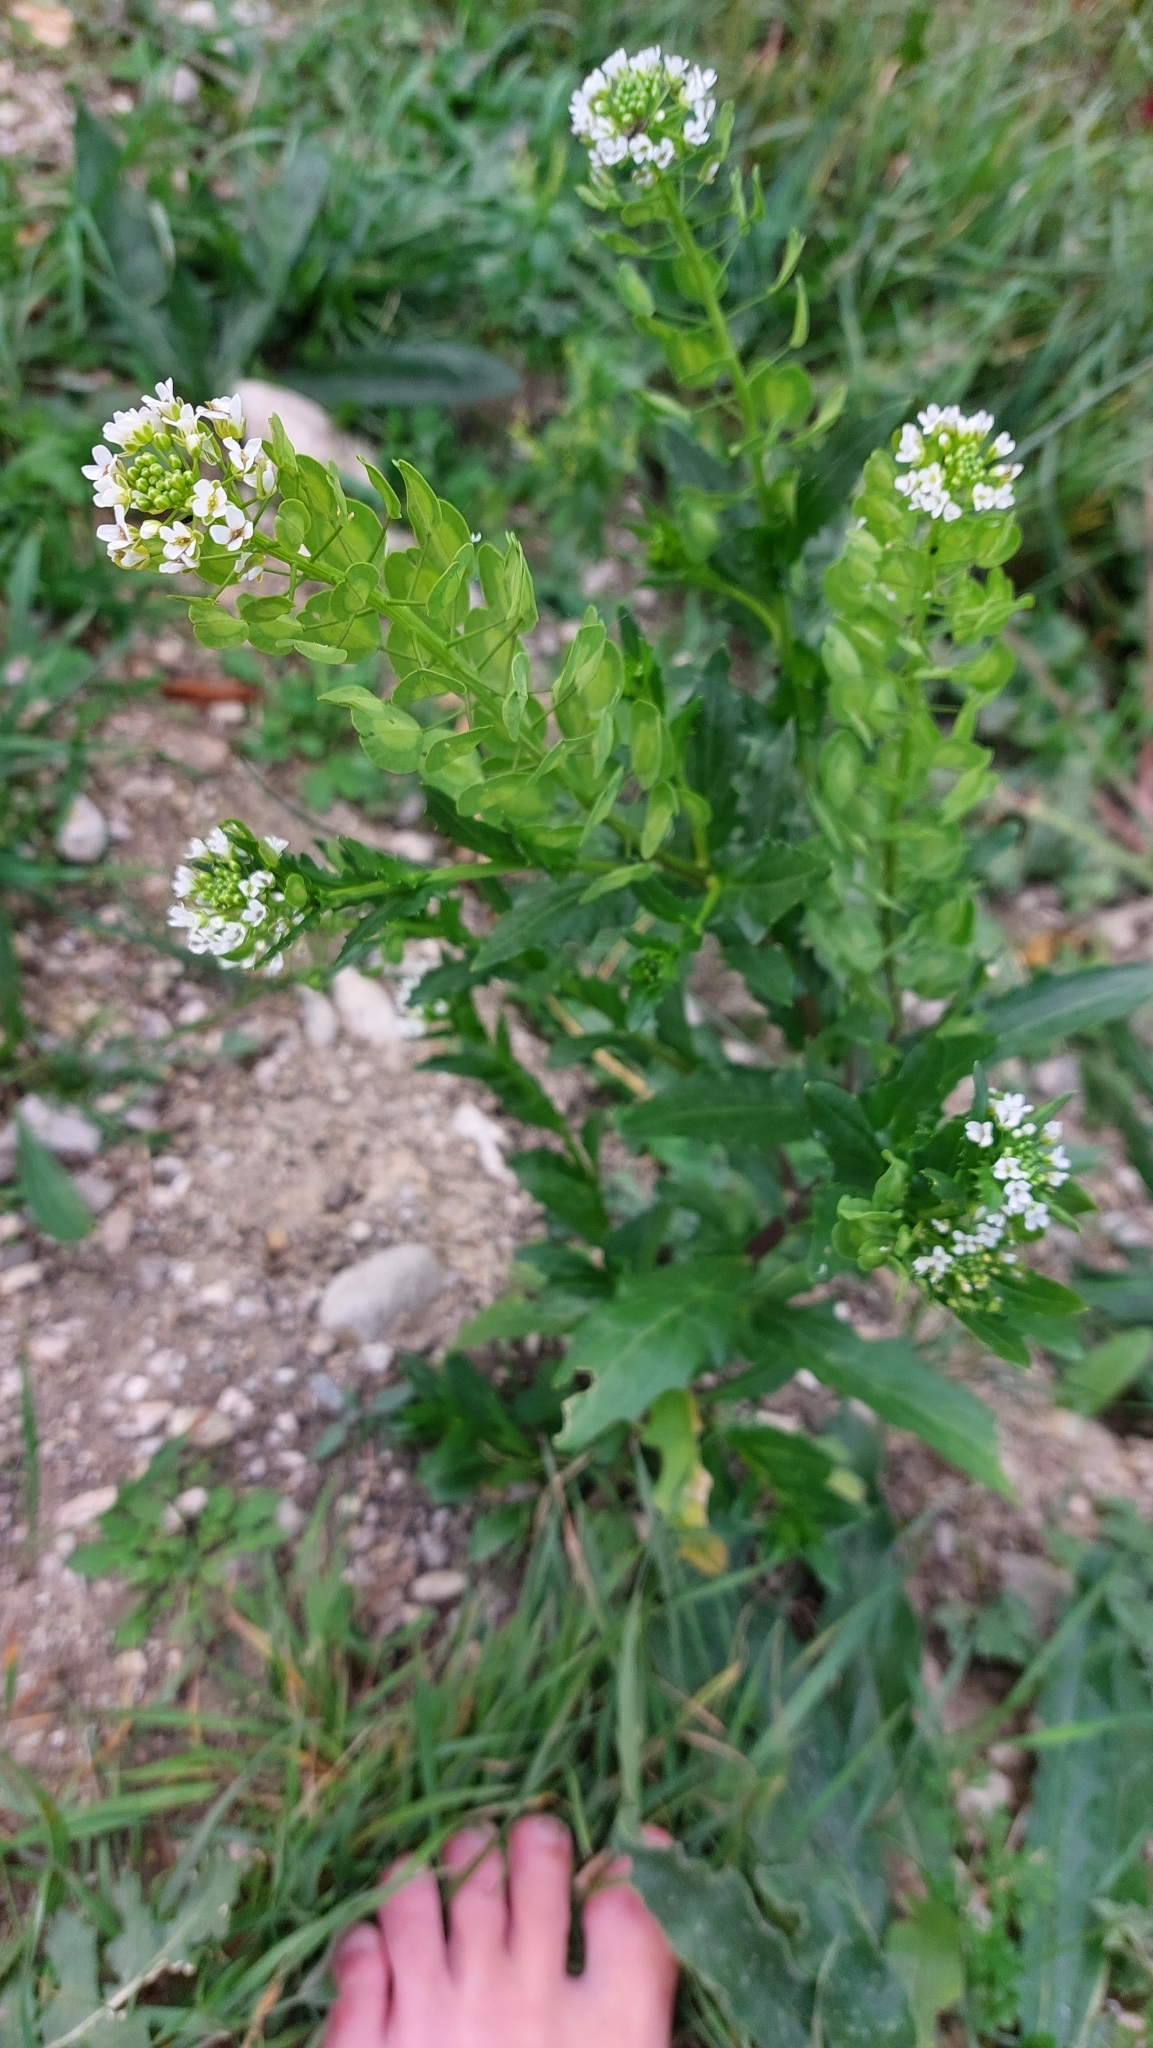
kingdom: Plantae
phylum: Tracheophyta
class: Magnoliopsida
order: Brassicales
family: Brassicaceae
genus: Thlaspi
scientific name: Thlaspi arvense
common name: Field pennycress
